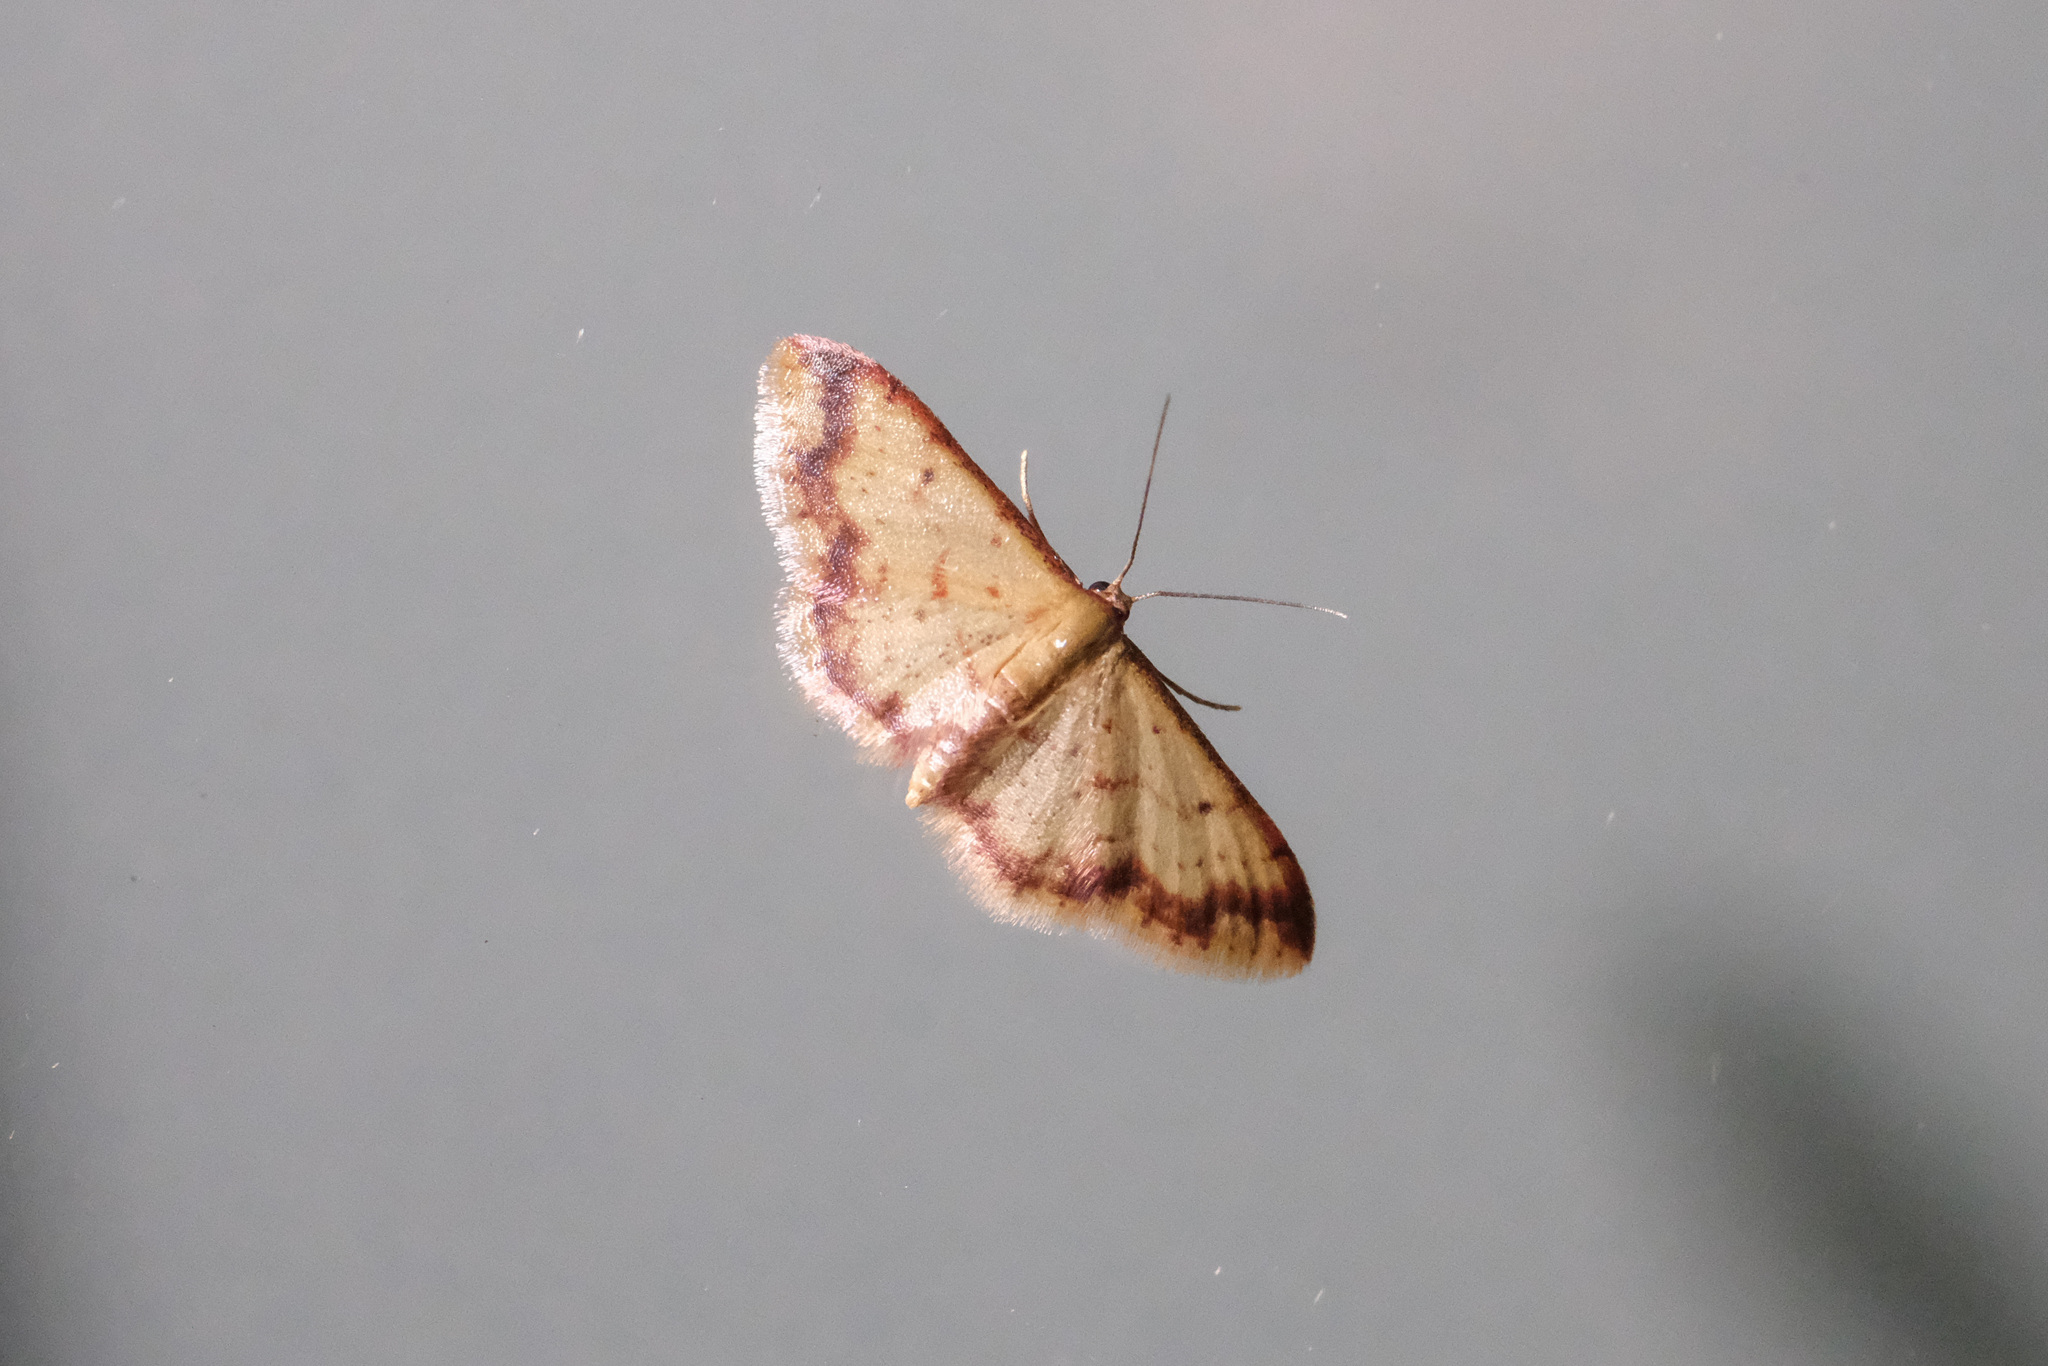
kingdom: Animalia
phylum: Arthropoda
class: Insecta
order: Lepidoptera
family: Geometridae
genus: Idaea
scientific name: Idaea impexa
